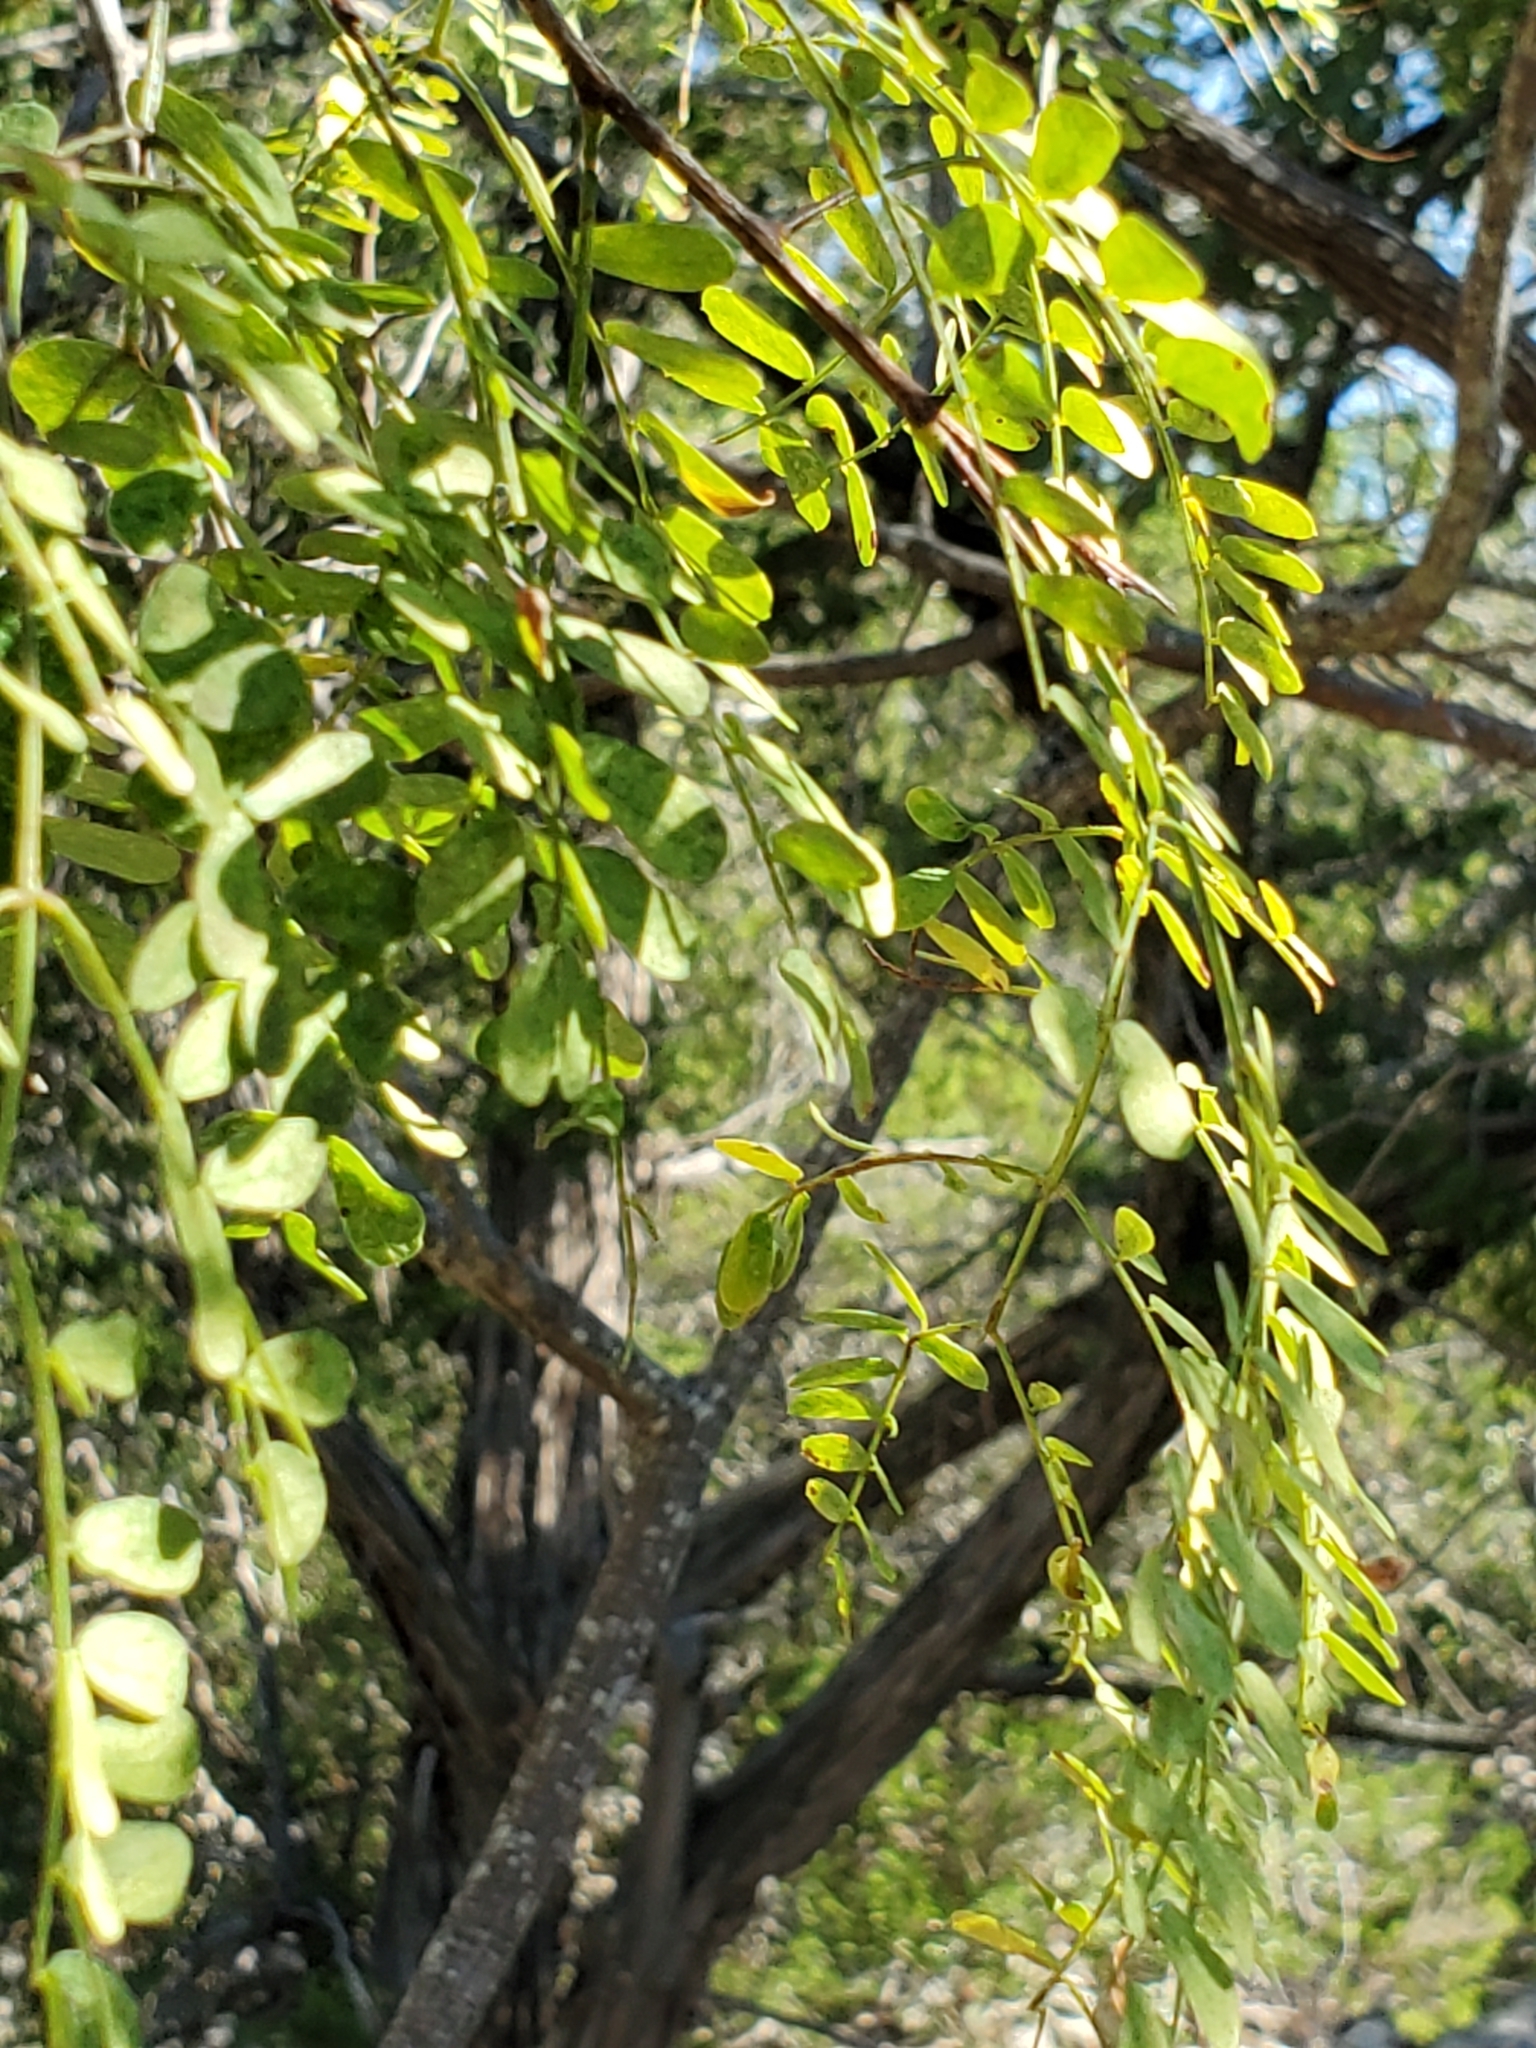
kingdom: Plantae
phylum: Tracheophyta
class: Magnoliopsida
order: Fabales
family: Fabaceae
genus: Senegalia
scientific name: Senegalia roemeriana
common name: Roemer's acacia
